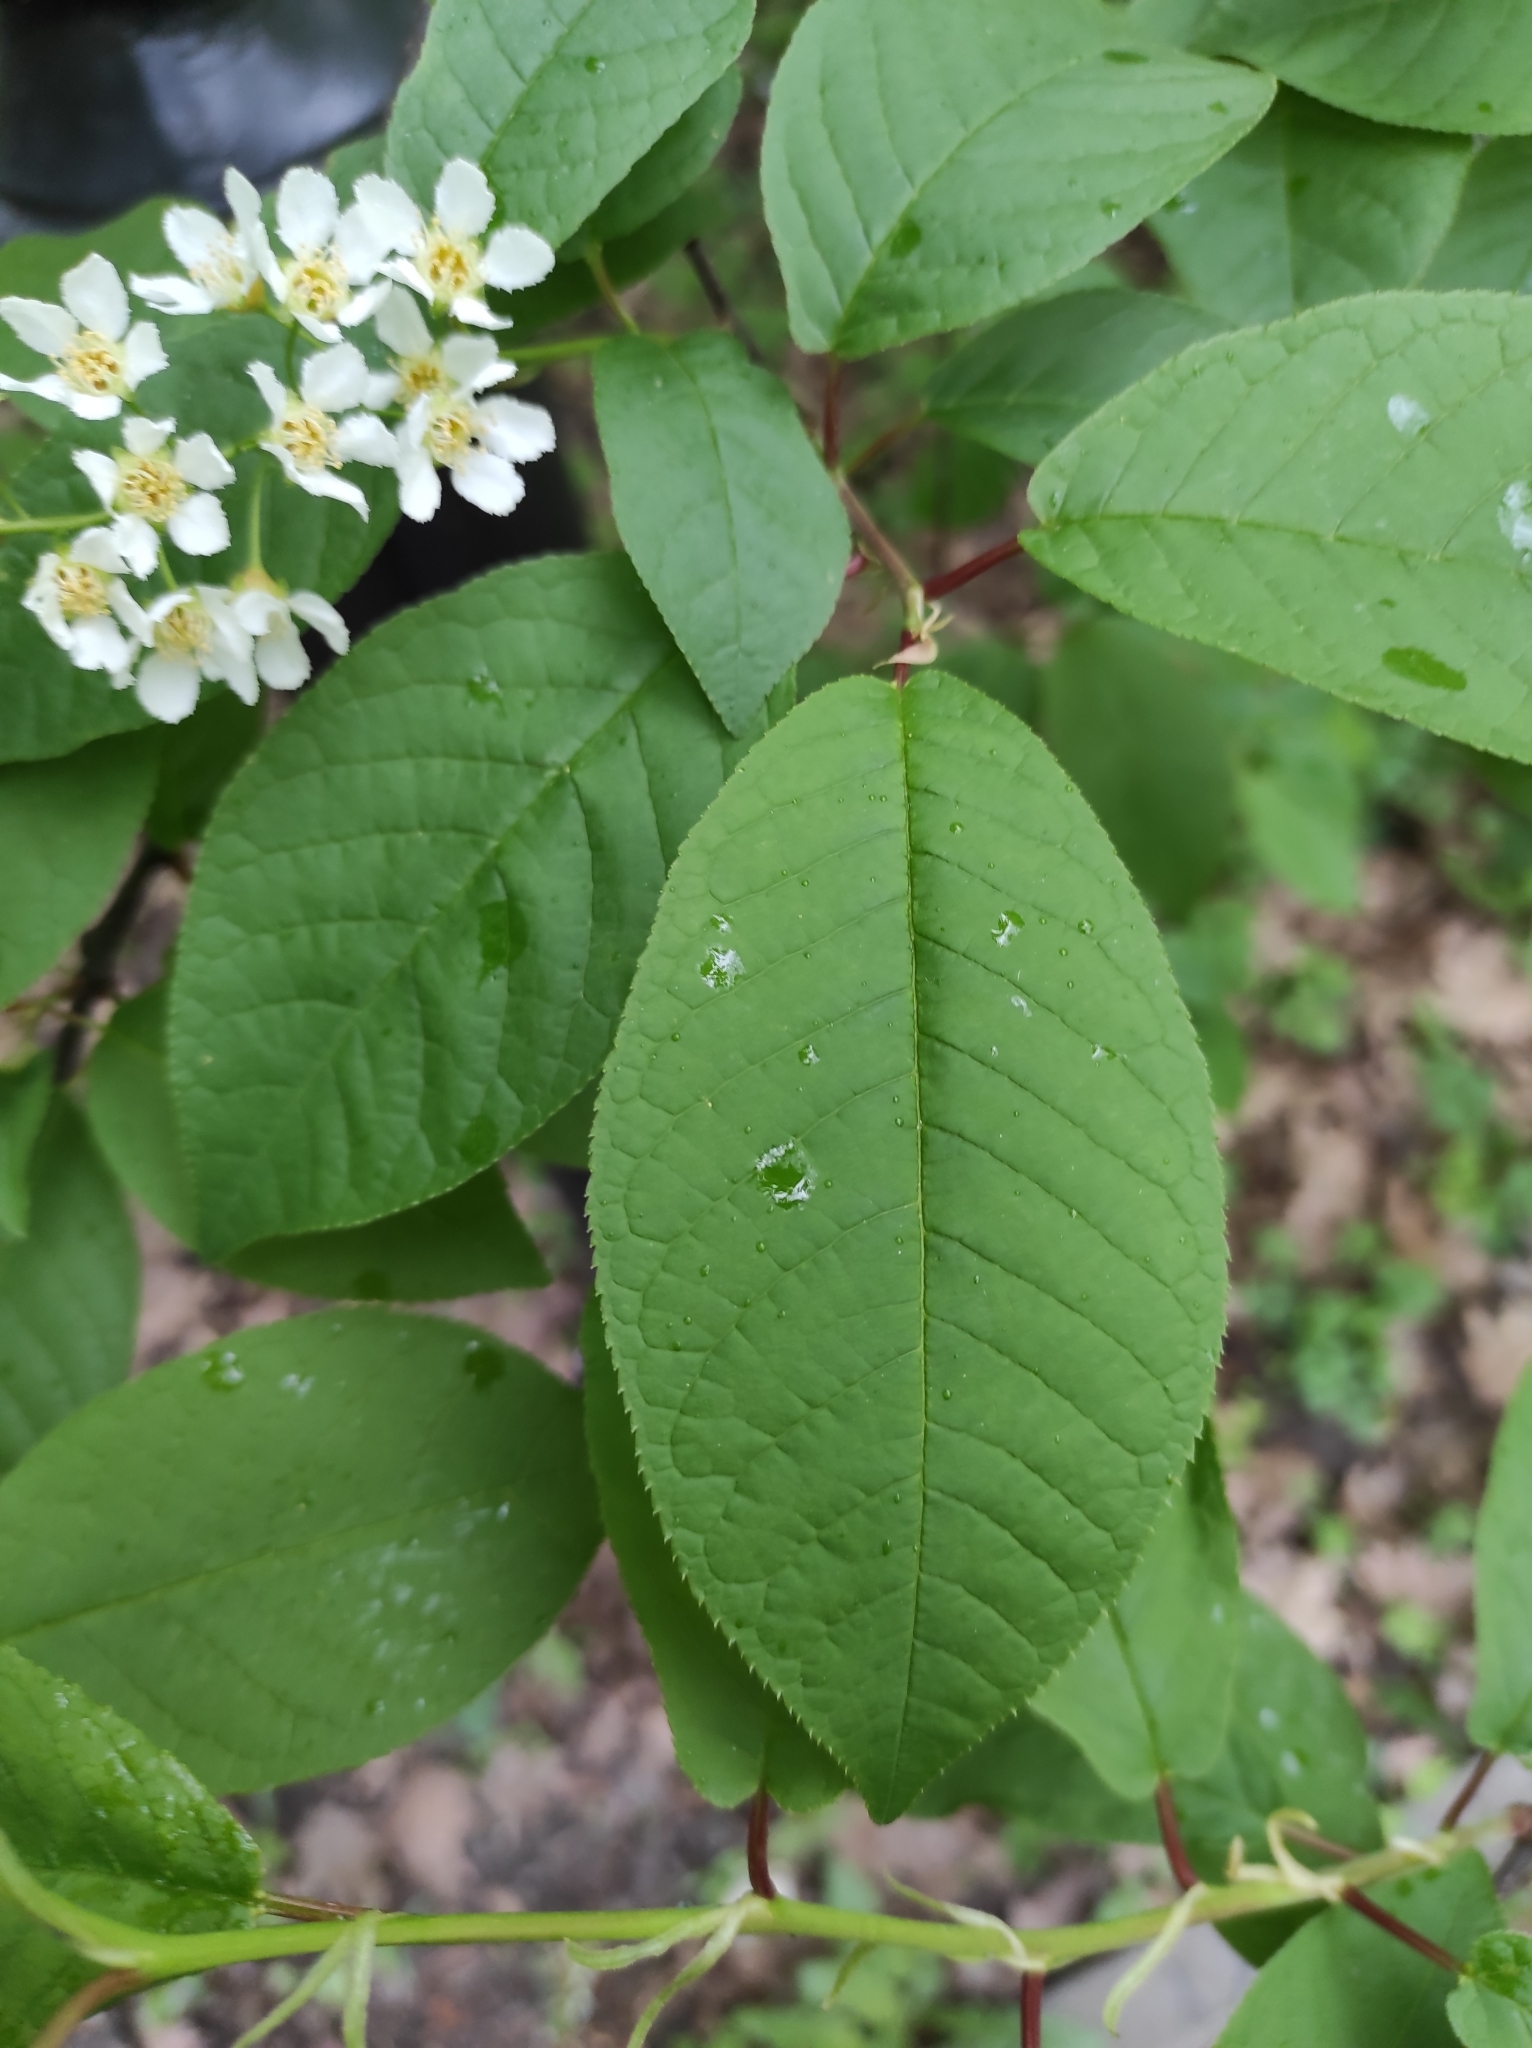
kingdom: Plantae
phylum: Tracheophyta
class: Magnoliopsida
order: Rosales
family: Rosaceae
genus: Prunus
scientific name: Prunus padus
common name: Bird cherry
